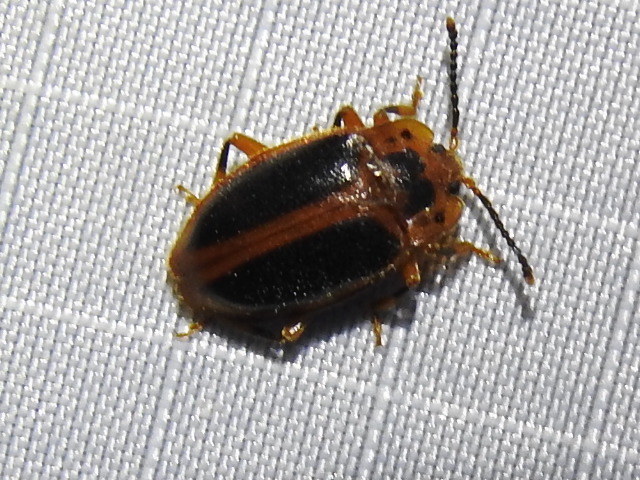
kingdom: Animalia
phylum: Arthropoda
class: Insecta
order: Coleoptera
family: Endomychidae
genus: Epipocus
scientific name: Epipocus cinctus
